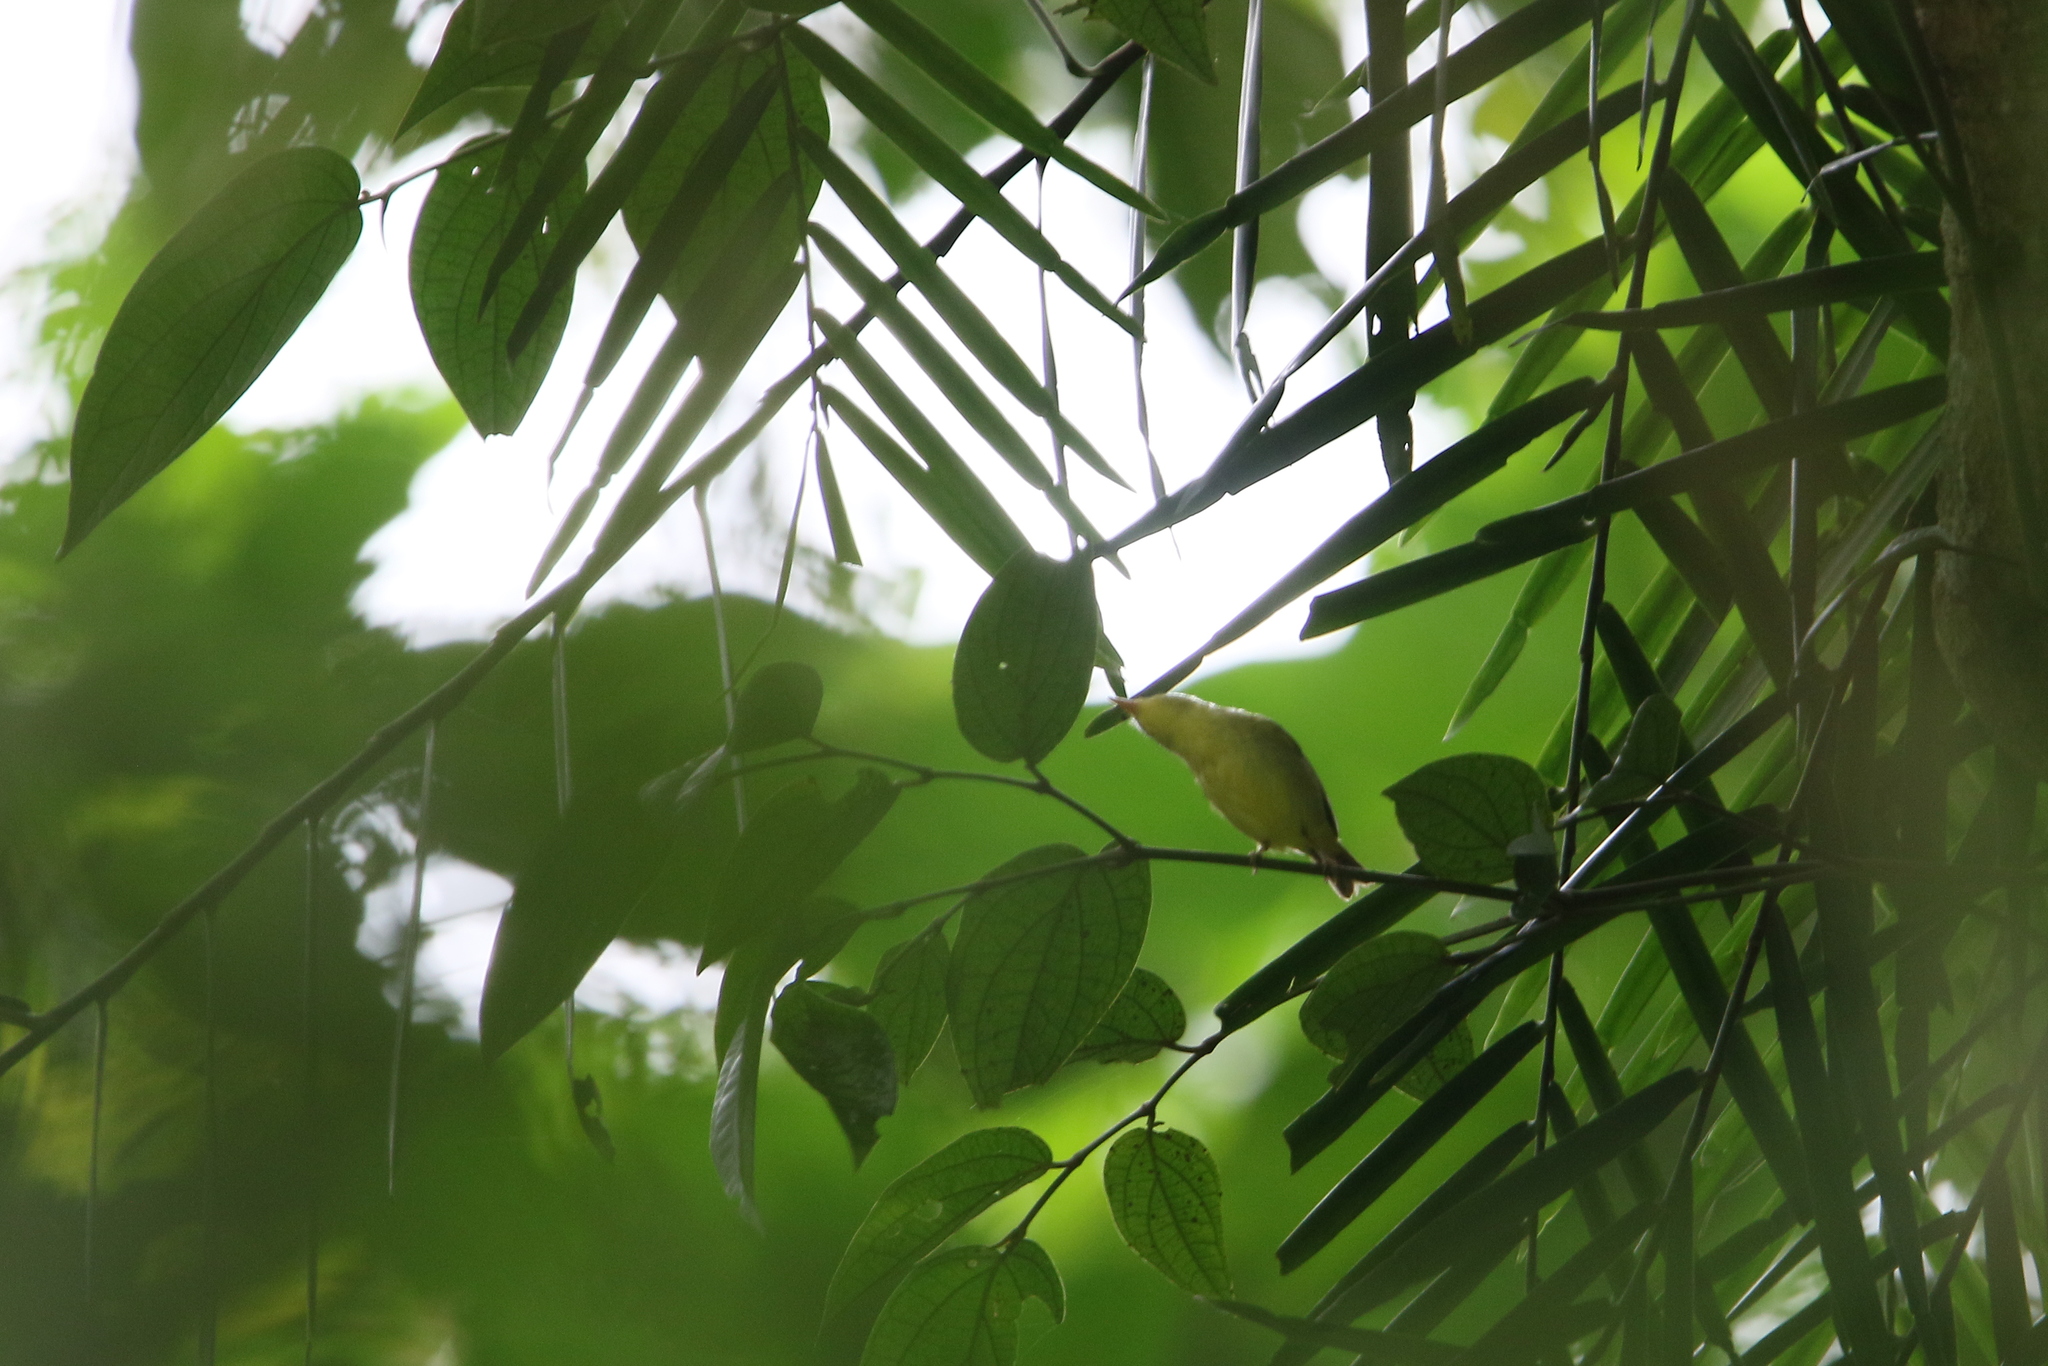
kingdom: Animalia
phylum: Chordata
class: Aves
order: Passeriformes
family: Phylloscopidae
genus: Phylloscopus
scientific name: Phylloscopus calciatilis
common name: Limestone leaf warbler
